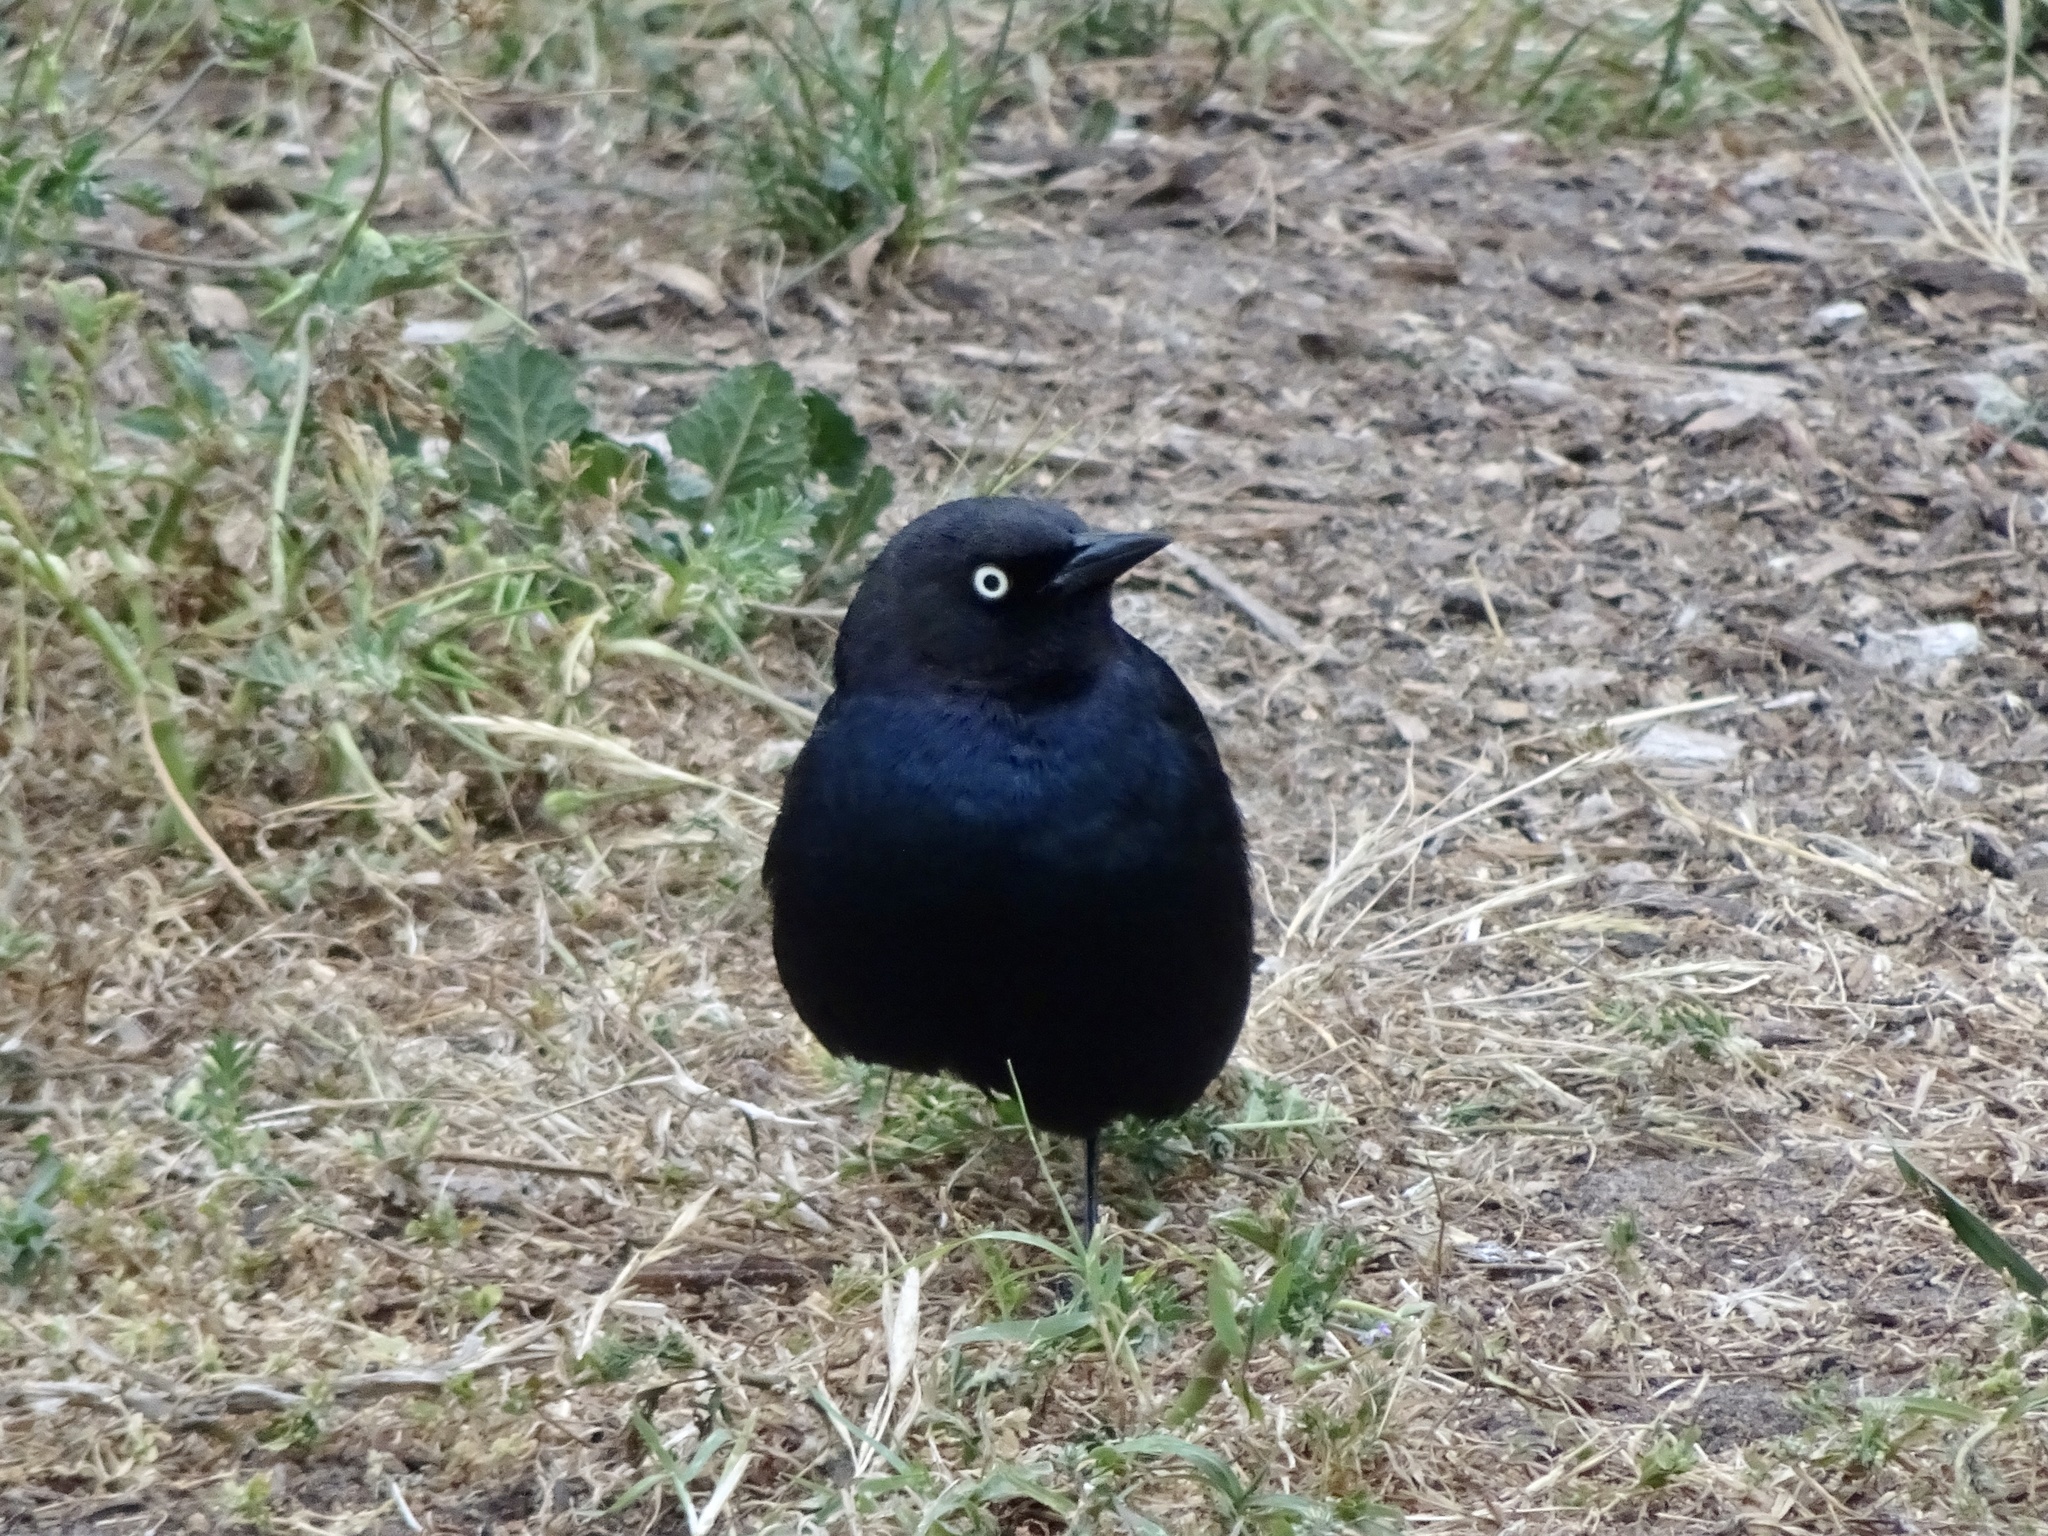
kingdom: Animalia
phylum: Chordata
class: Aves
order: Passeriformes
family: Icteridae
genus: Euphagus
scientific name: Euphagus cyanocephalus
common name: Brewer's blackbird
